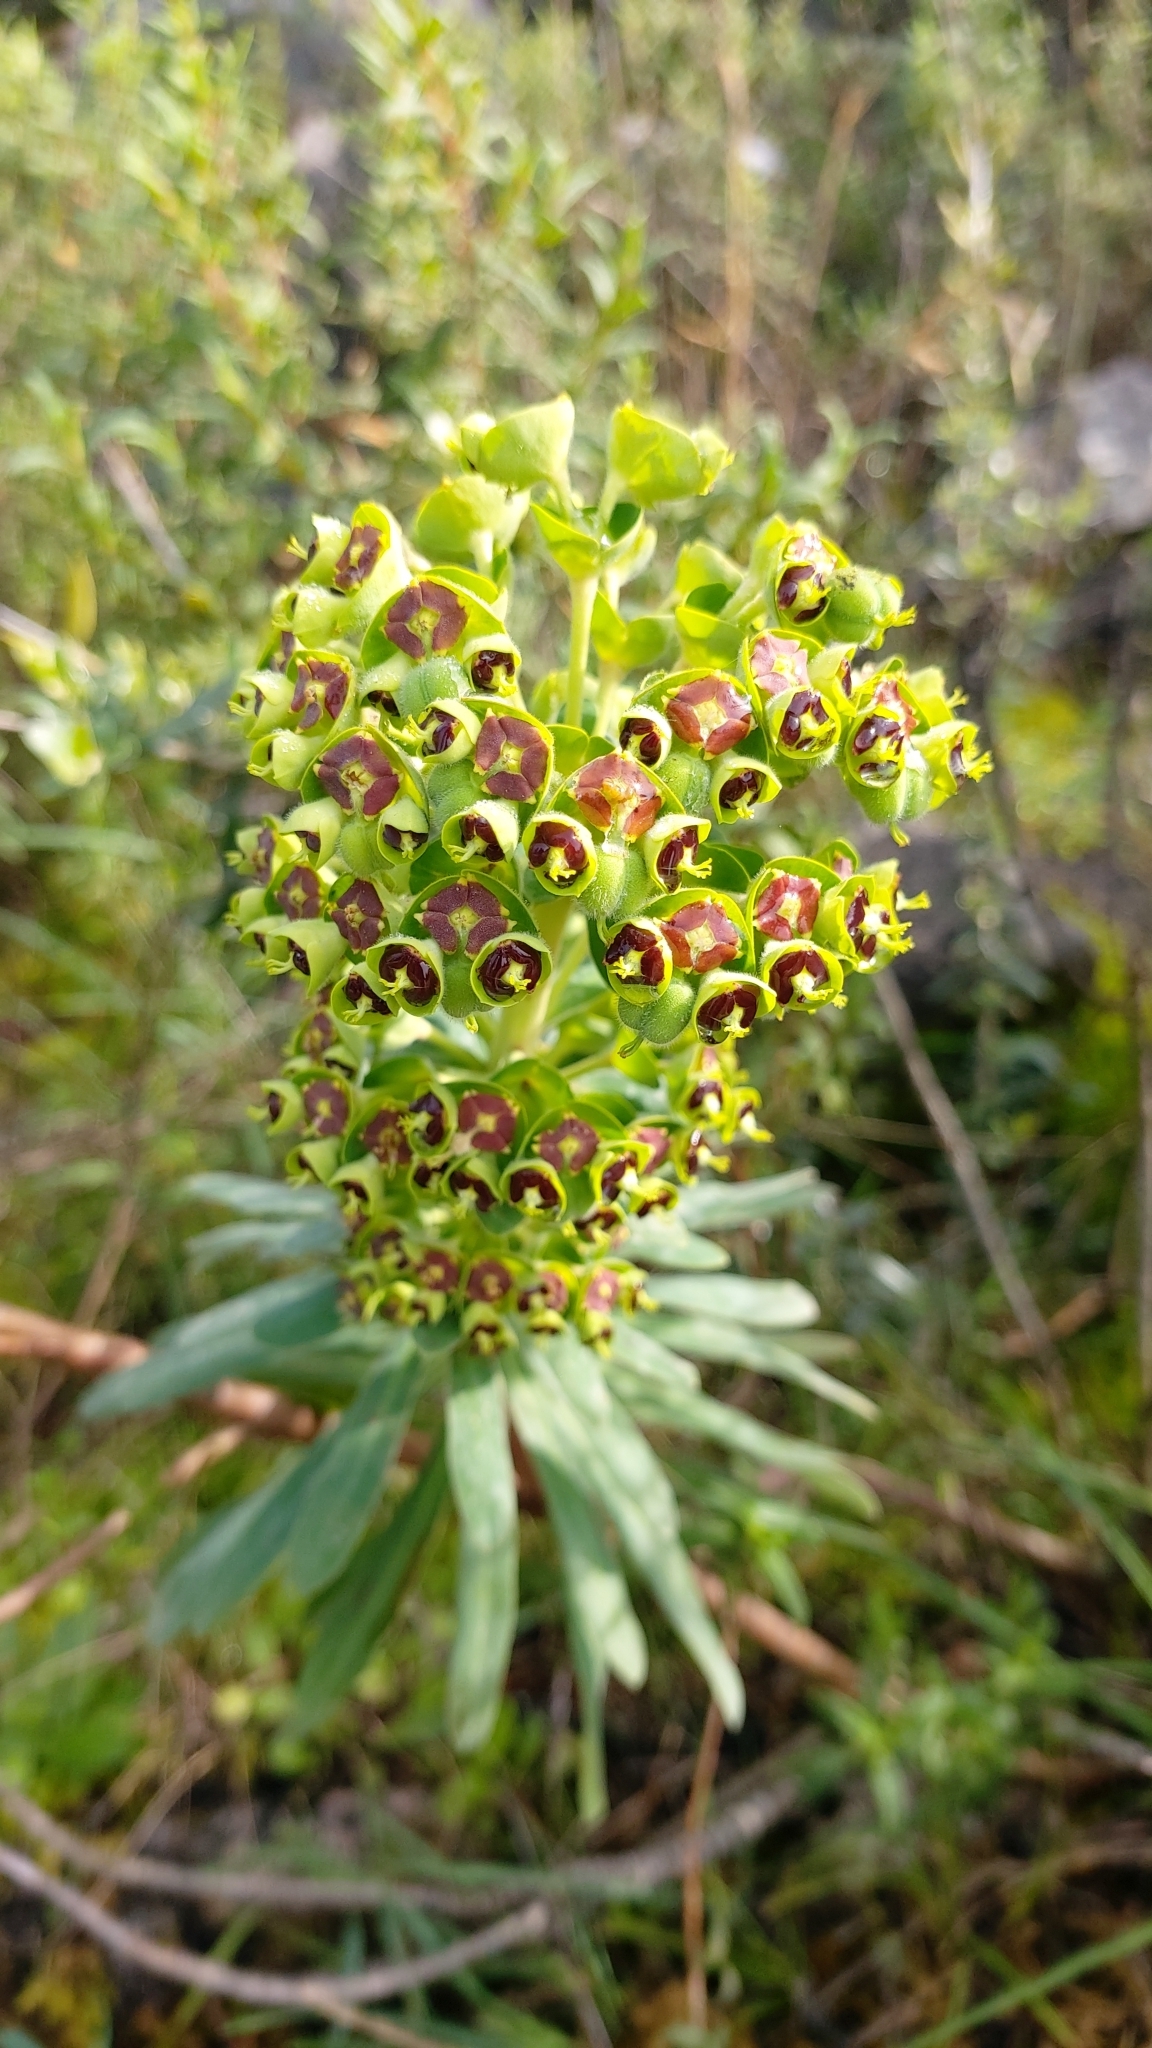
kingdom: Plantae
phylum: Tracheophyta
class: Magnoliopsida
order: Malpighiales
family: Euphorbiaceae
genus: Euphorbia
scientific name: Euphorbia characias
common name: Mediterranean spurge
